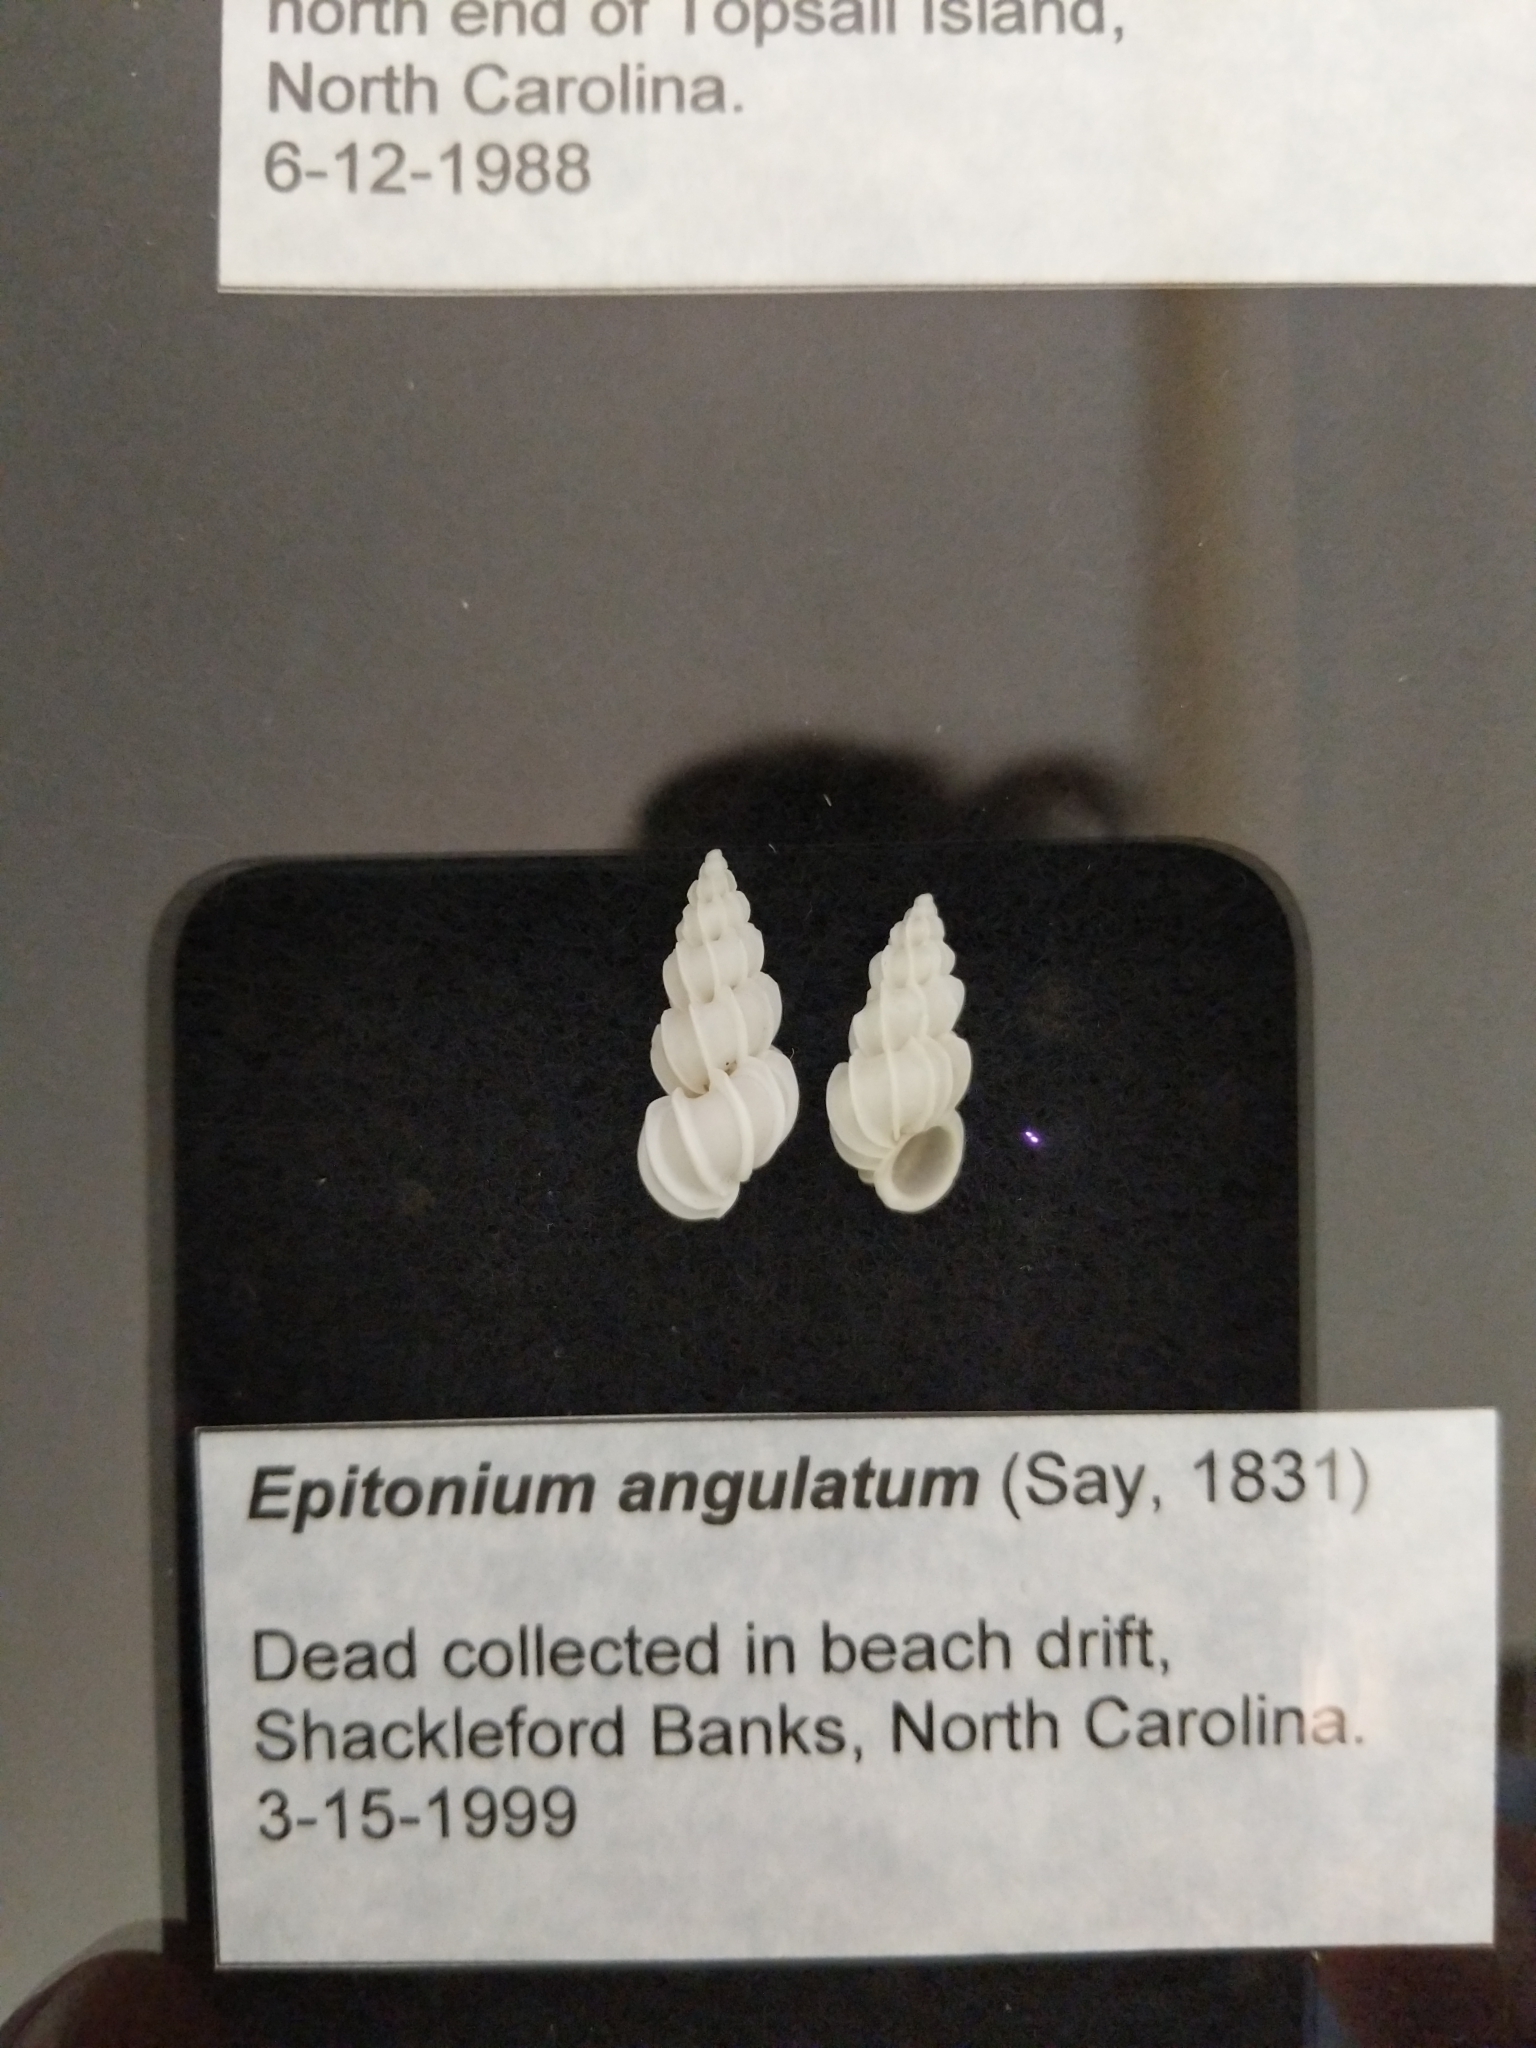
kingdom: Animalia
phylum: Mollusca
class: Gastropoda
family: Epitoniidae
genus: Epitonium
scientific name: Epitonium angulatum
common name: Angulate wentletrap
